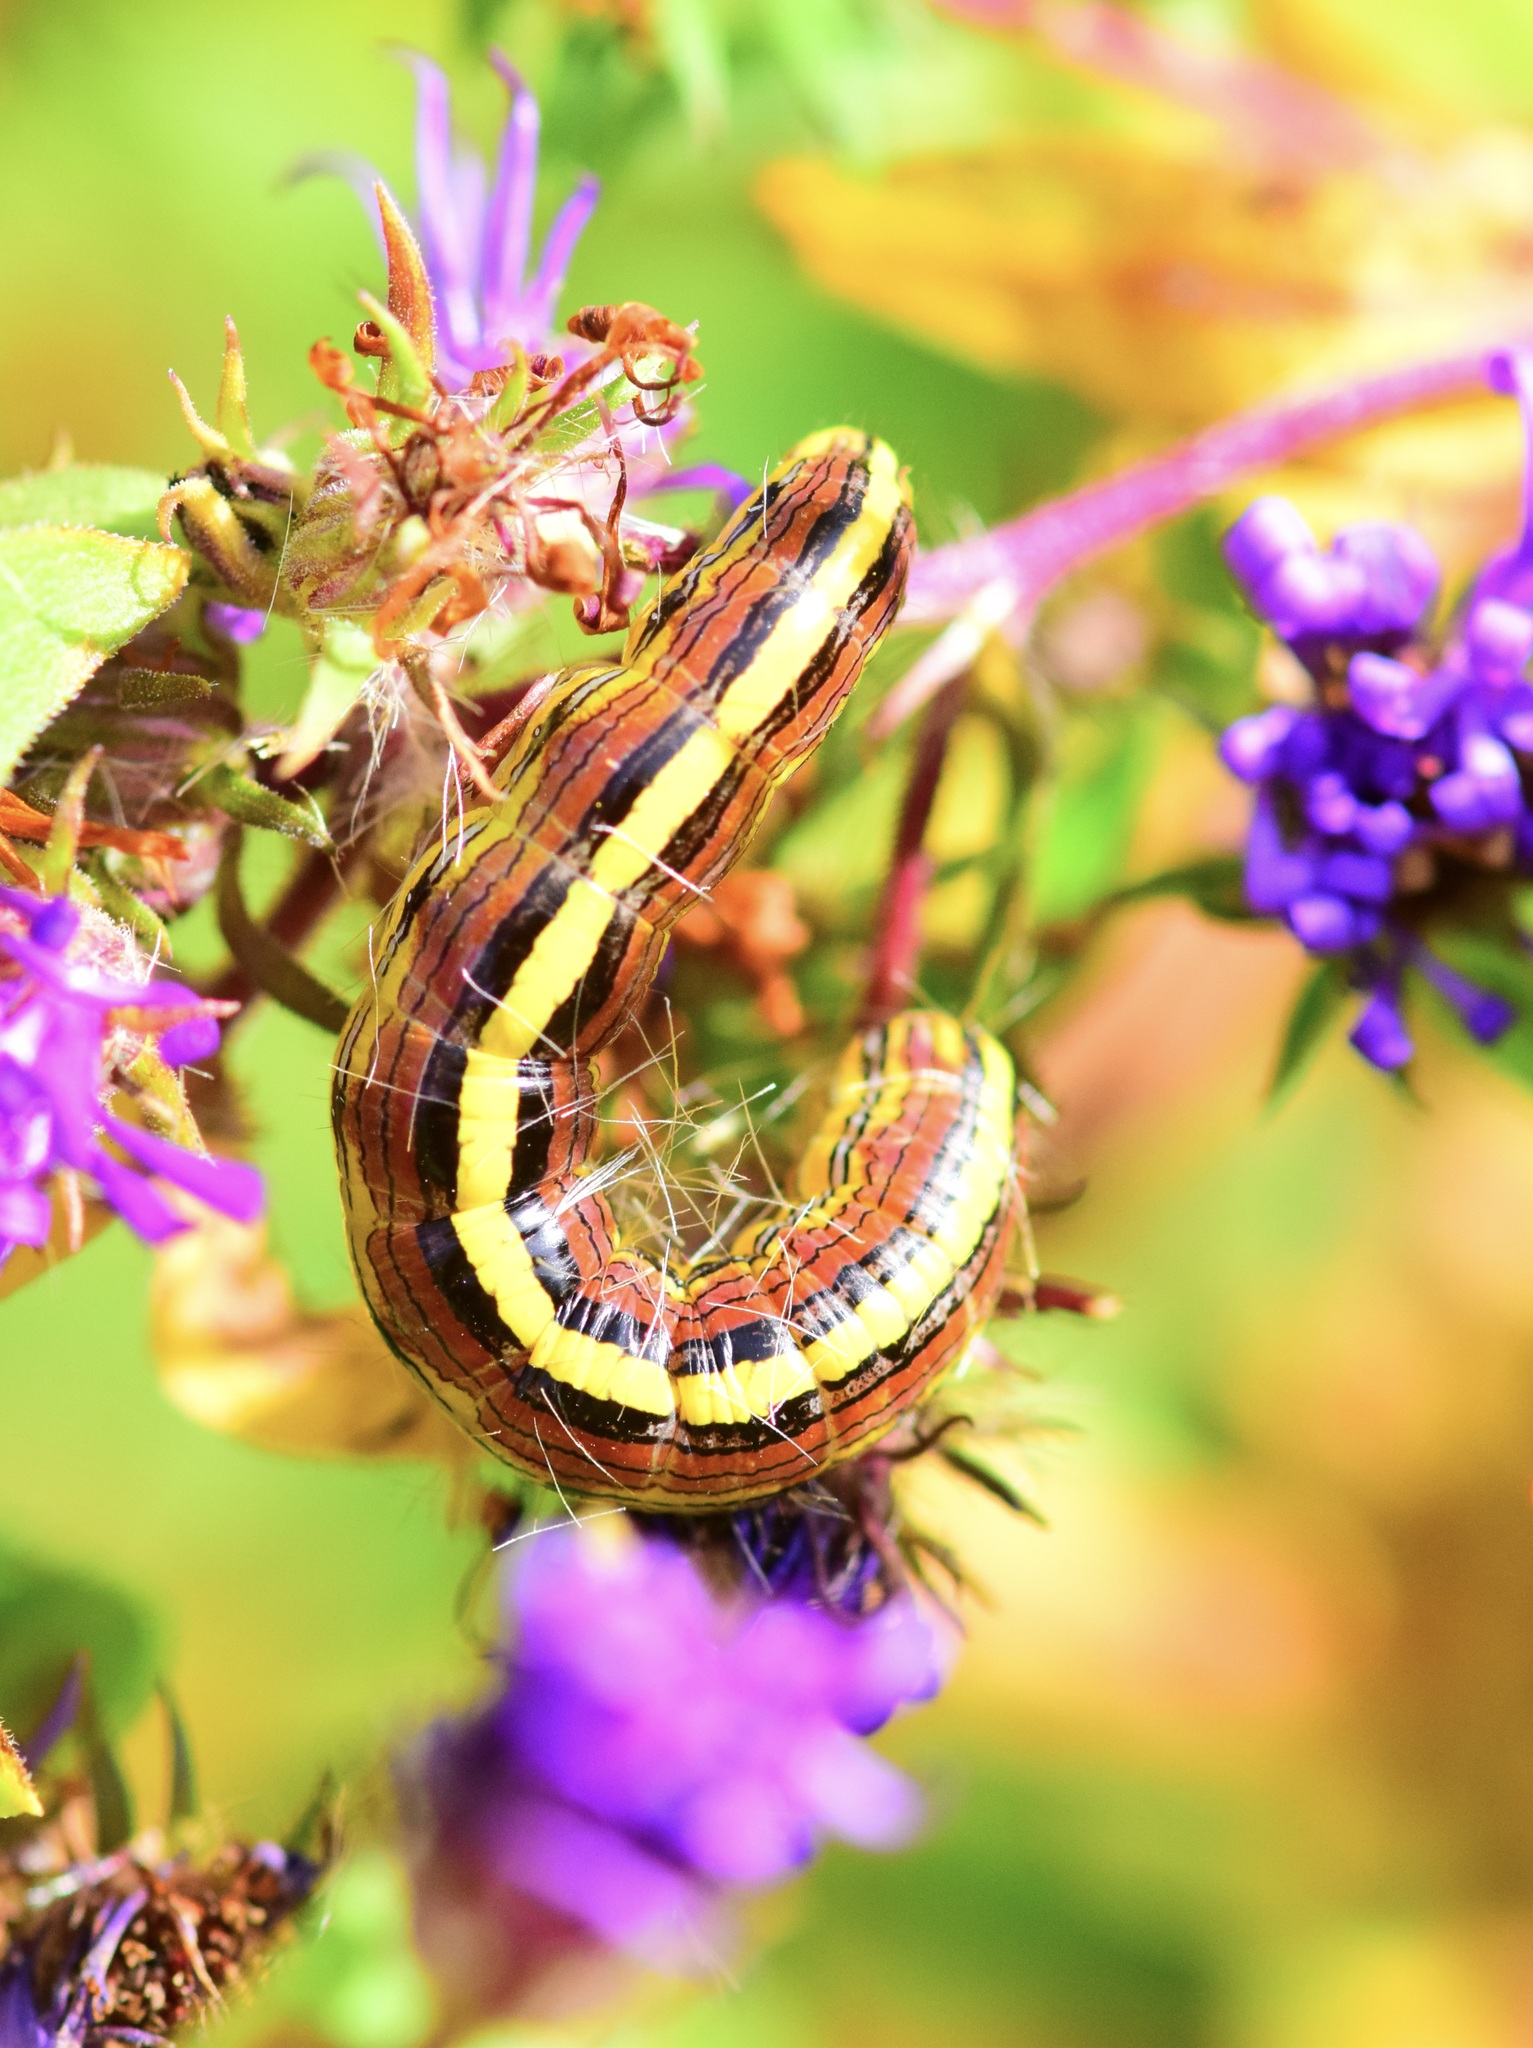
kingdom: Animalia
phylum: Arthropoda
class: Insecta
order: Lepidoptera
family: Noctuidae
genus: Cucullia
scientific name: Cucullia asteroides
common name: Asteroid moth
